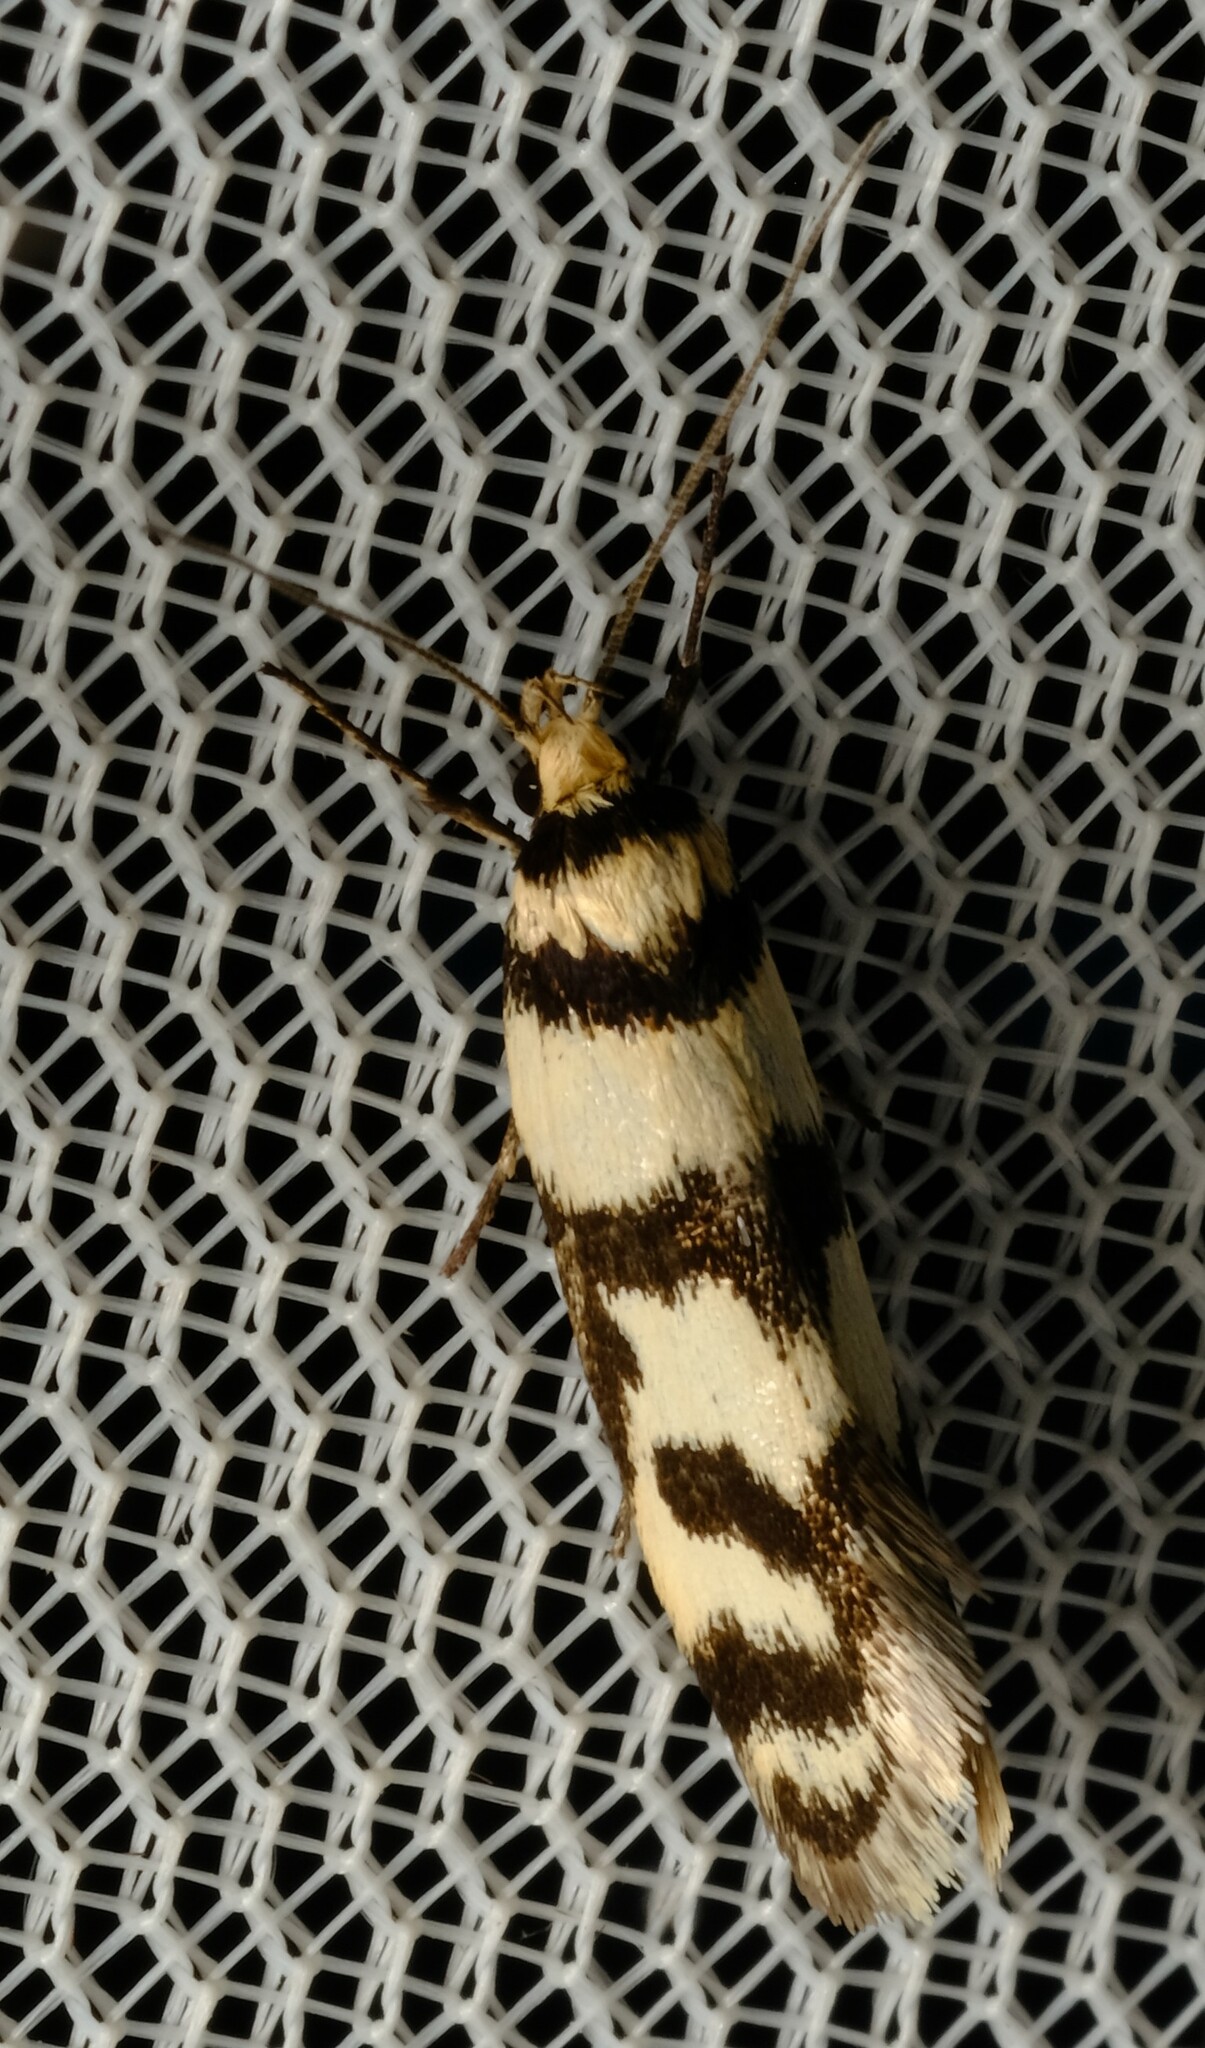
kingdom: Animalia
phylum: Arthropoda
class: Insecta
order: Lepidoptera
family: Oecophoridae
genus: Philobota
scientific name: Philobota impletella
